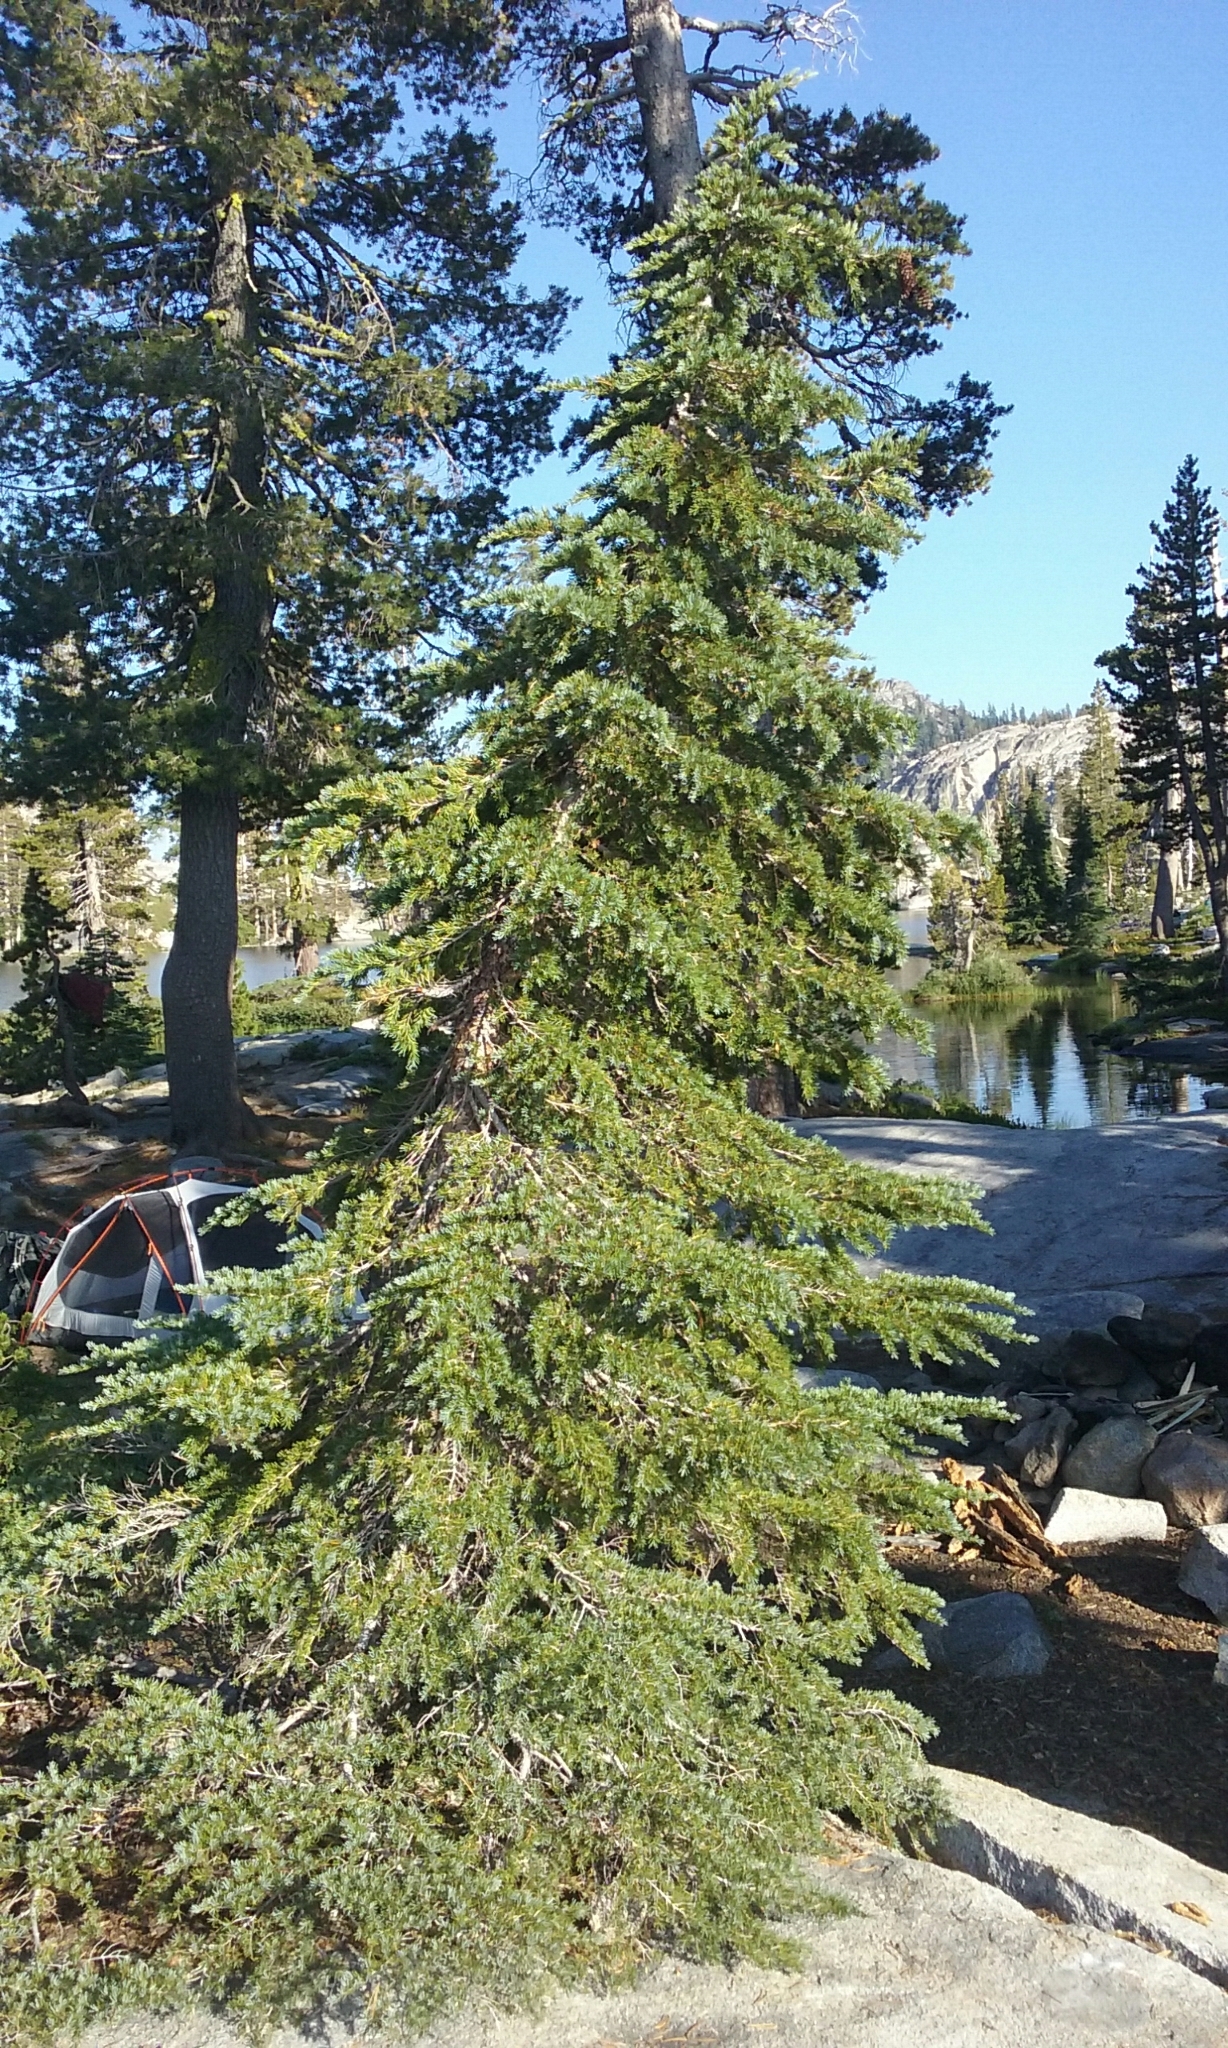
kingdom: Plantae
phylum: Tracheophyta
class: Pinopsida
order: Pinales
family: Pinaceae
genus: Tsuga
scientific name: Tsuga mertensiana
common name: Mountain hemlock
